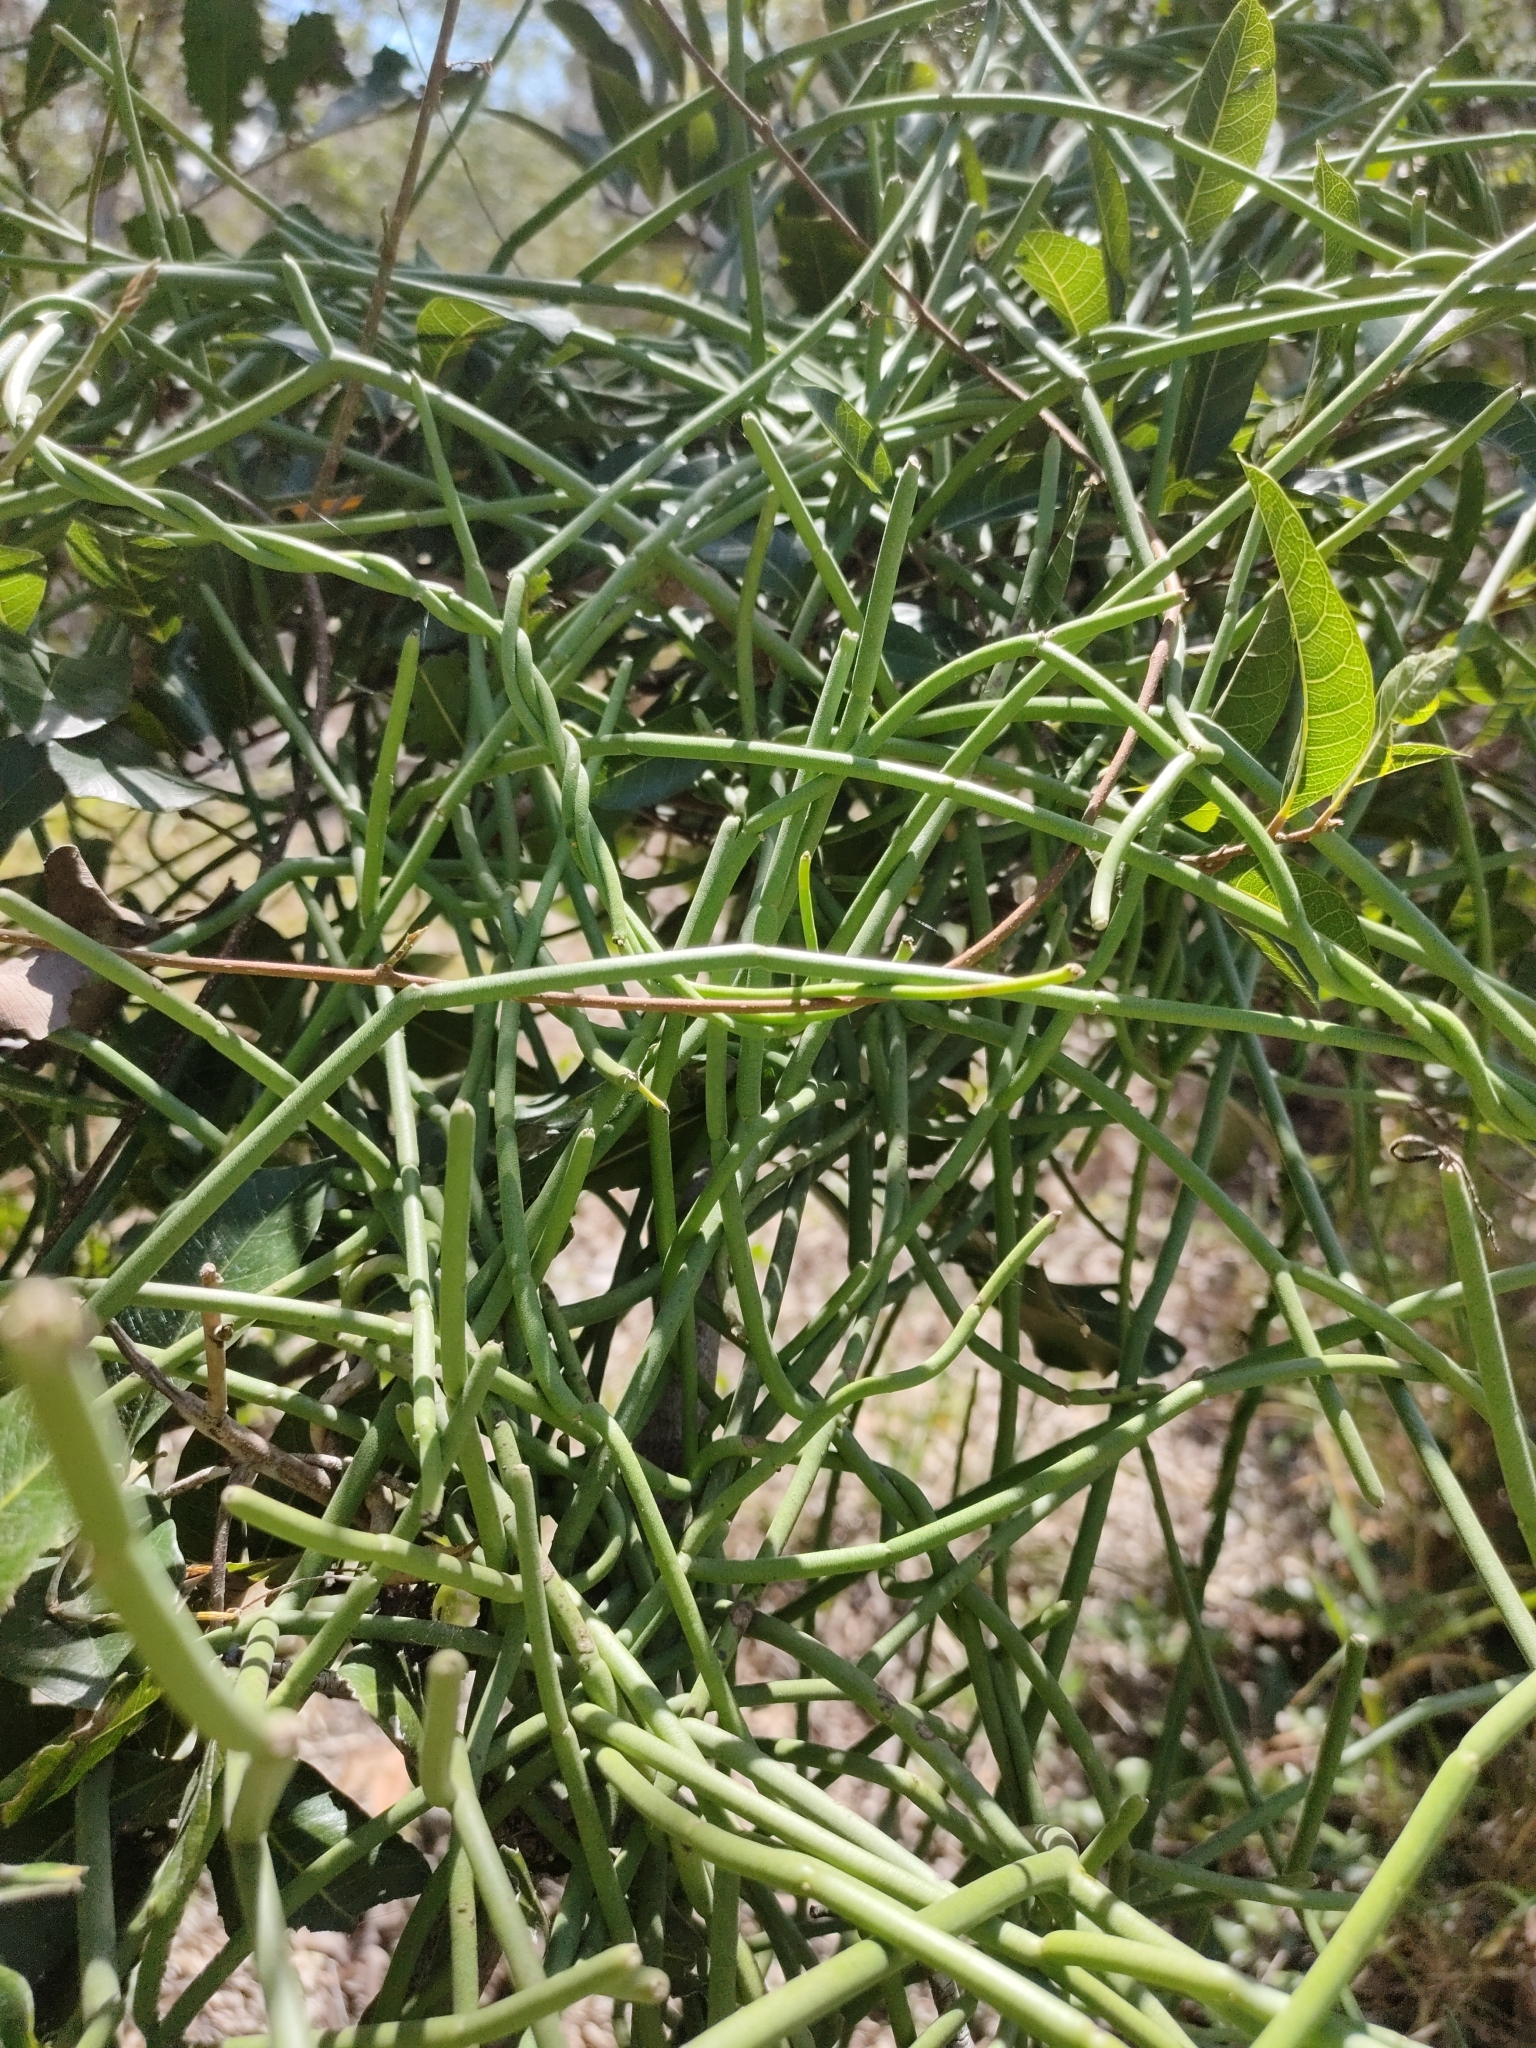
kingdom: Plantae
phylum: Tracheophyta
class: Magnoliopsida
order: Gentianales
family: Apocynaceae
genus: Cynanchum
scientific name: Cynanchum viminale
